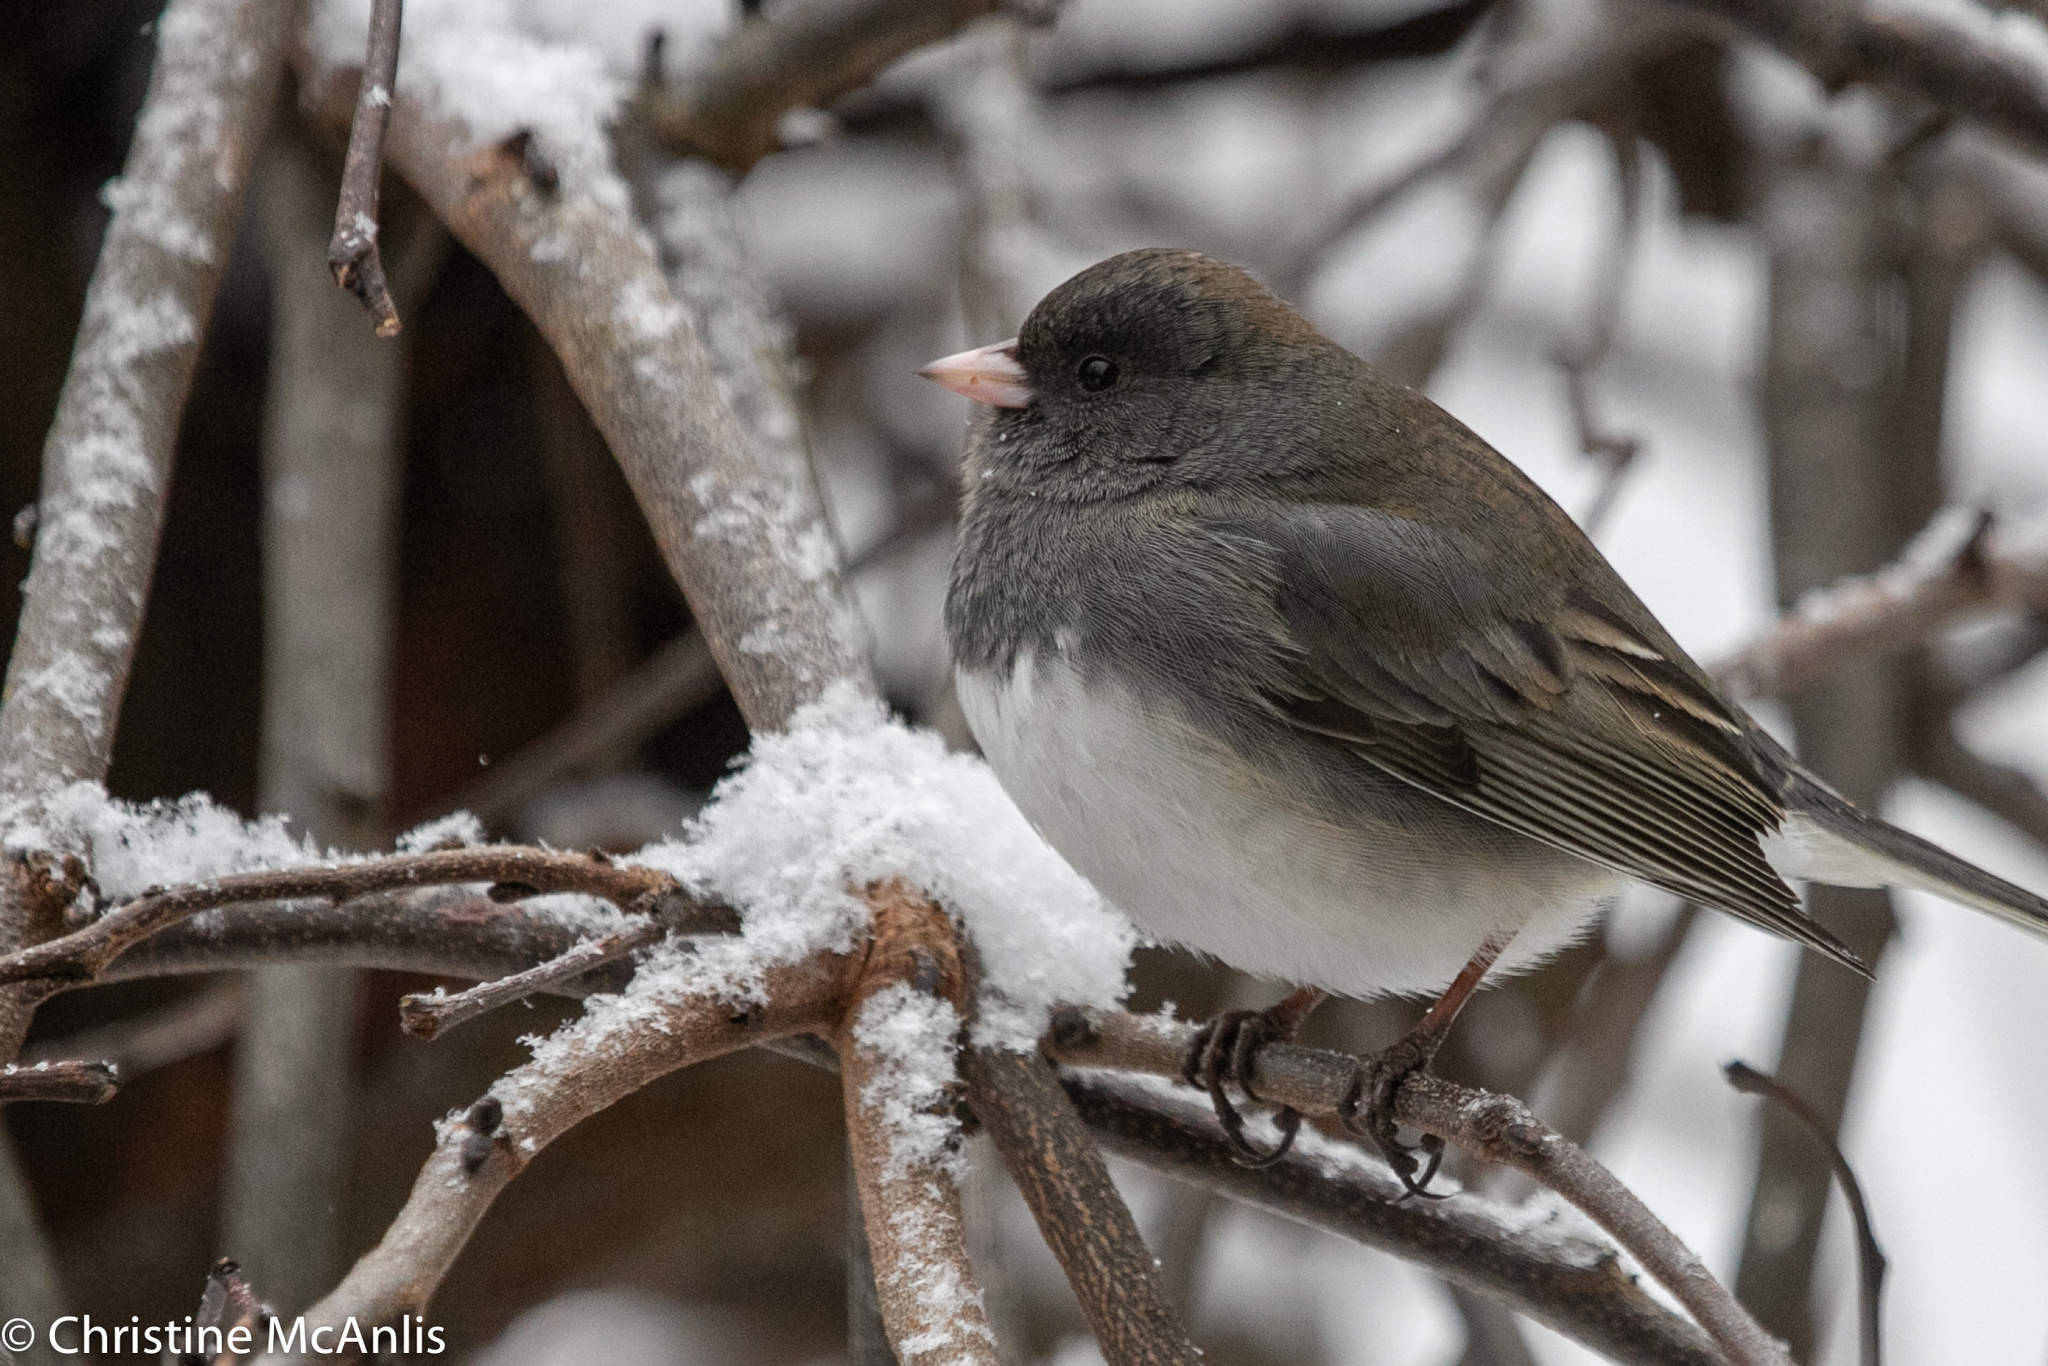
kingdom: Animalia
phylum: Chordata
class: Aves
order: Passeriformes
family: Passerellidae
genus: Junco
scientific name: Junco hyemalis
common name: Dark-eyed junco
